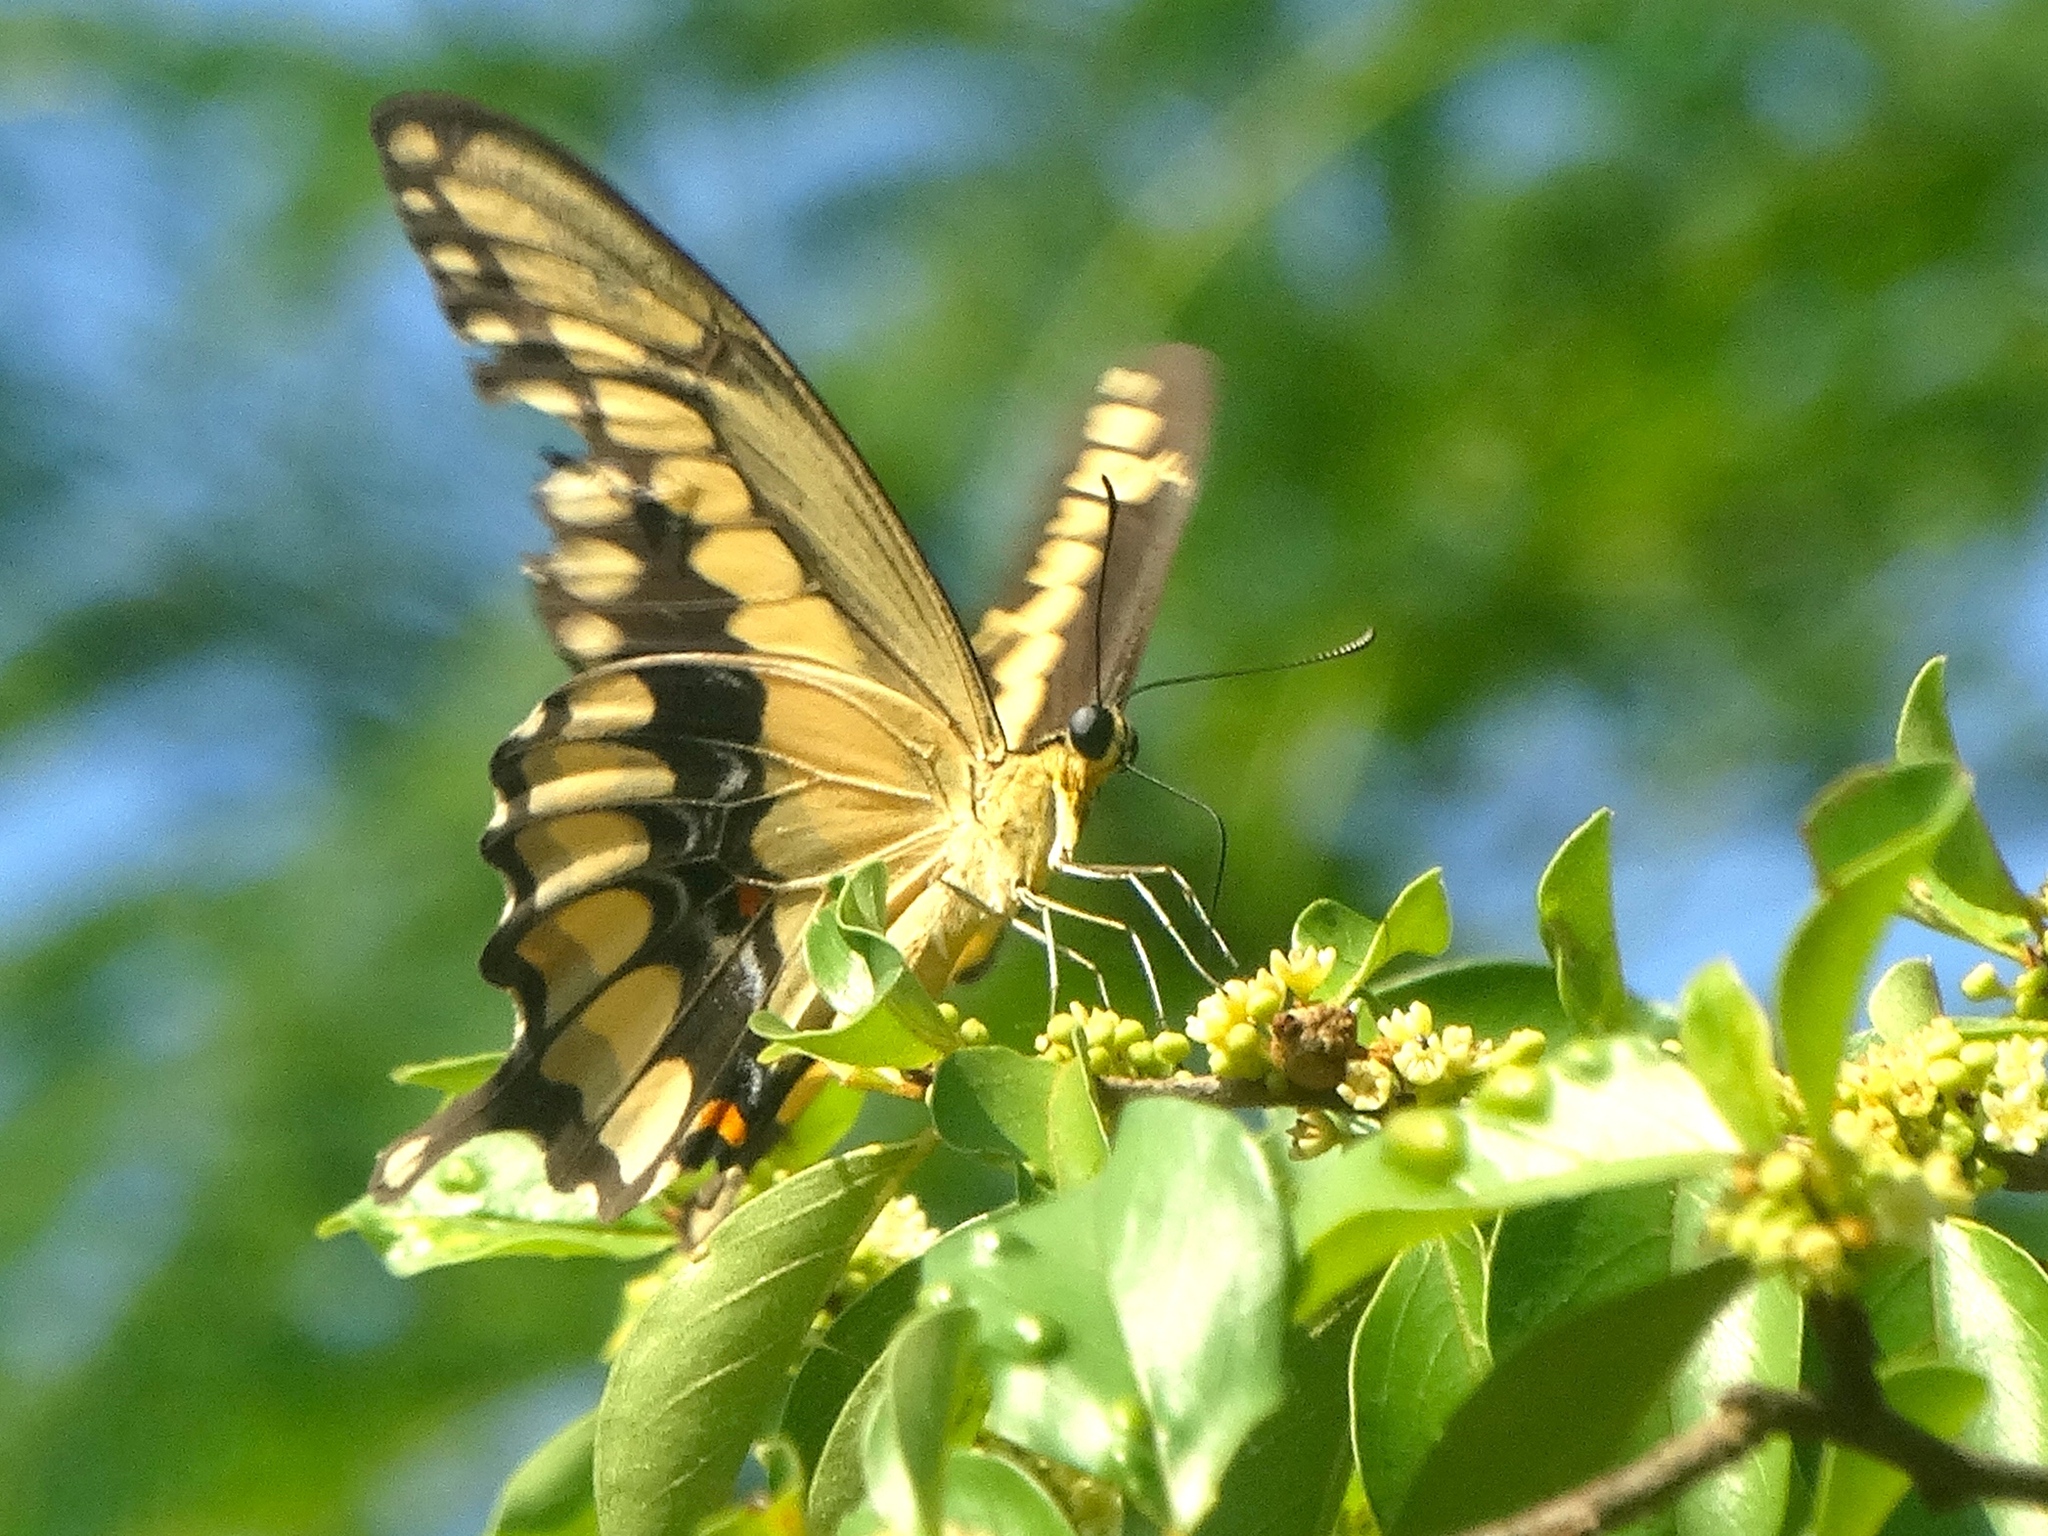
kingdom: Animalia
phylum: Arthropoda
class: Insecta
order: Lepidoptera
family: Papilionidae
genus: Heraclides
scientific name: Heraclides
